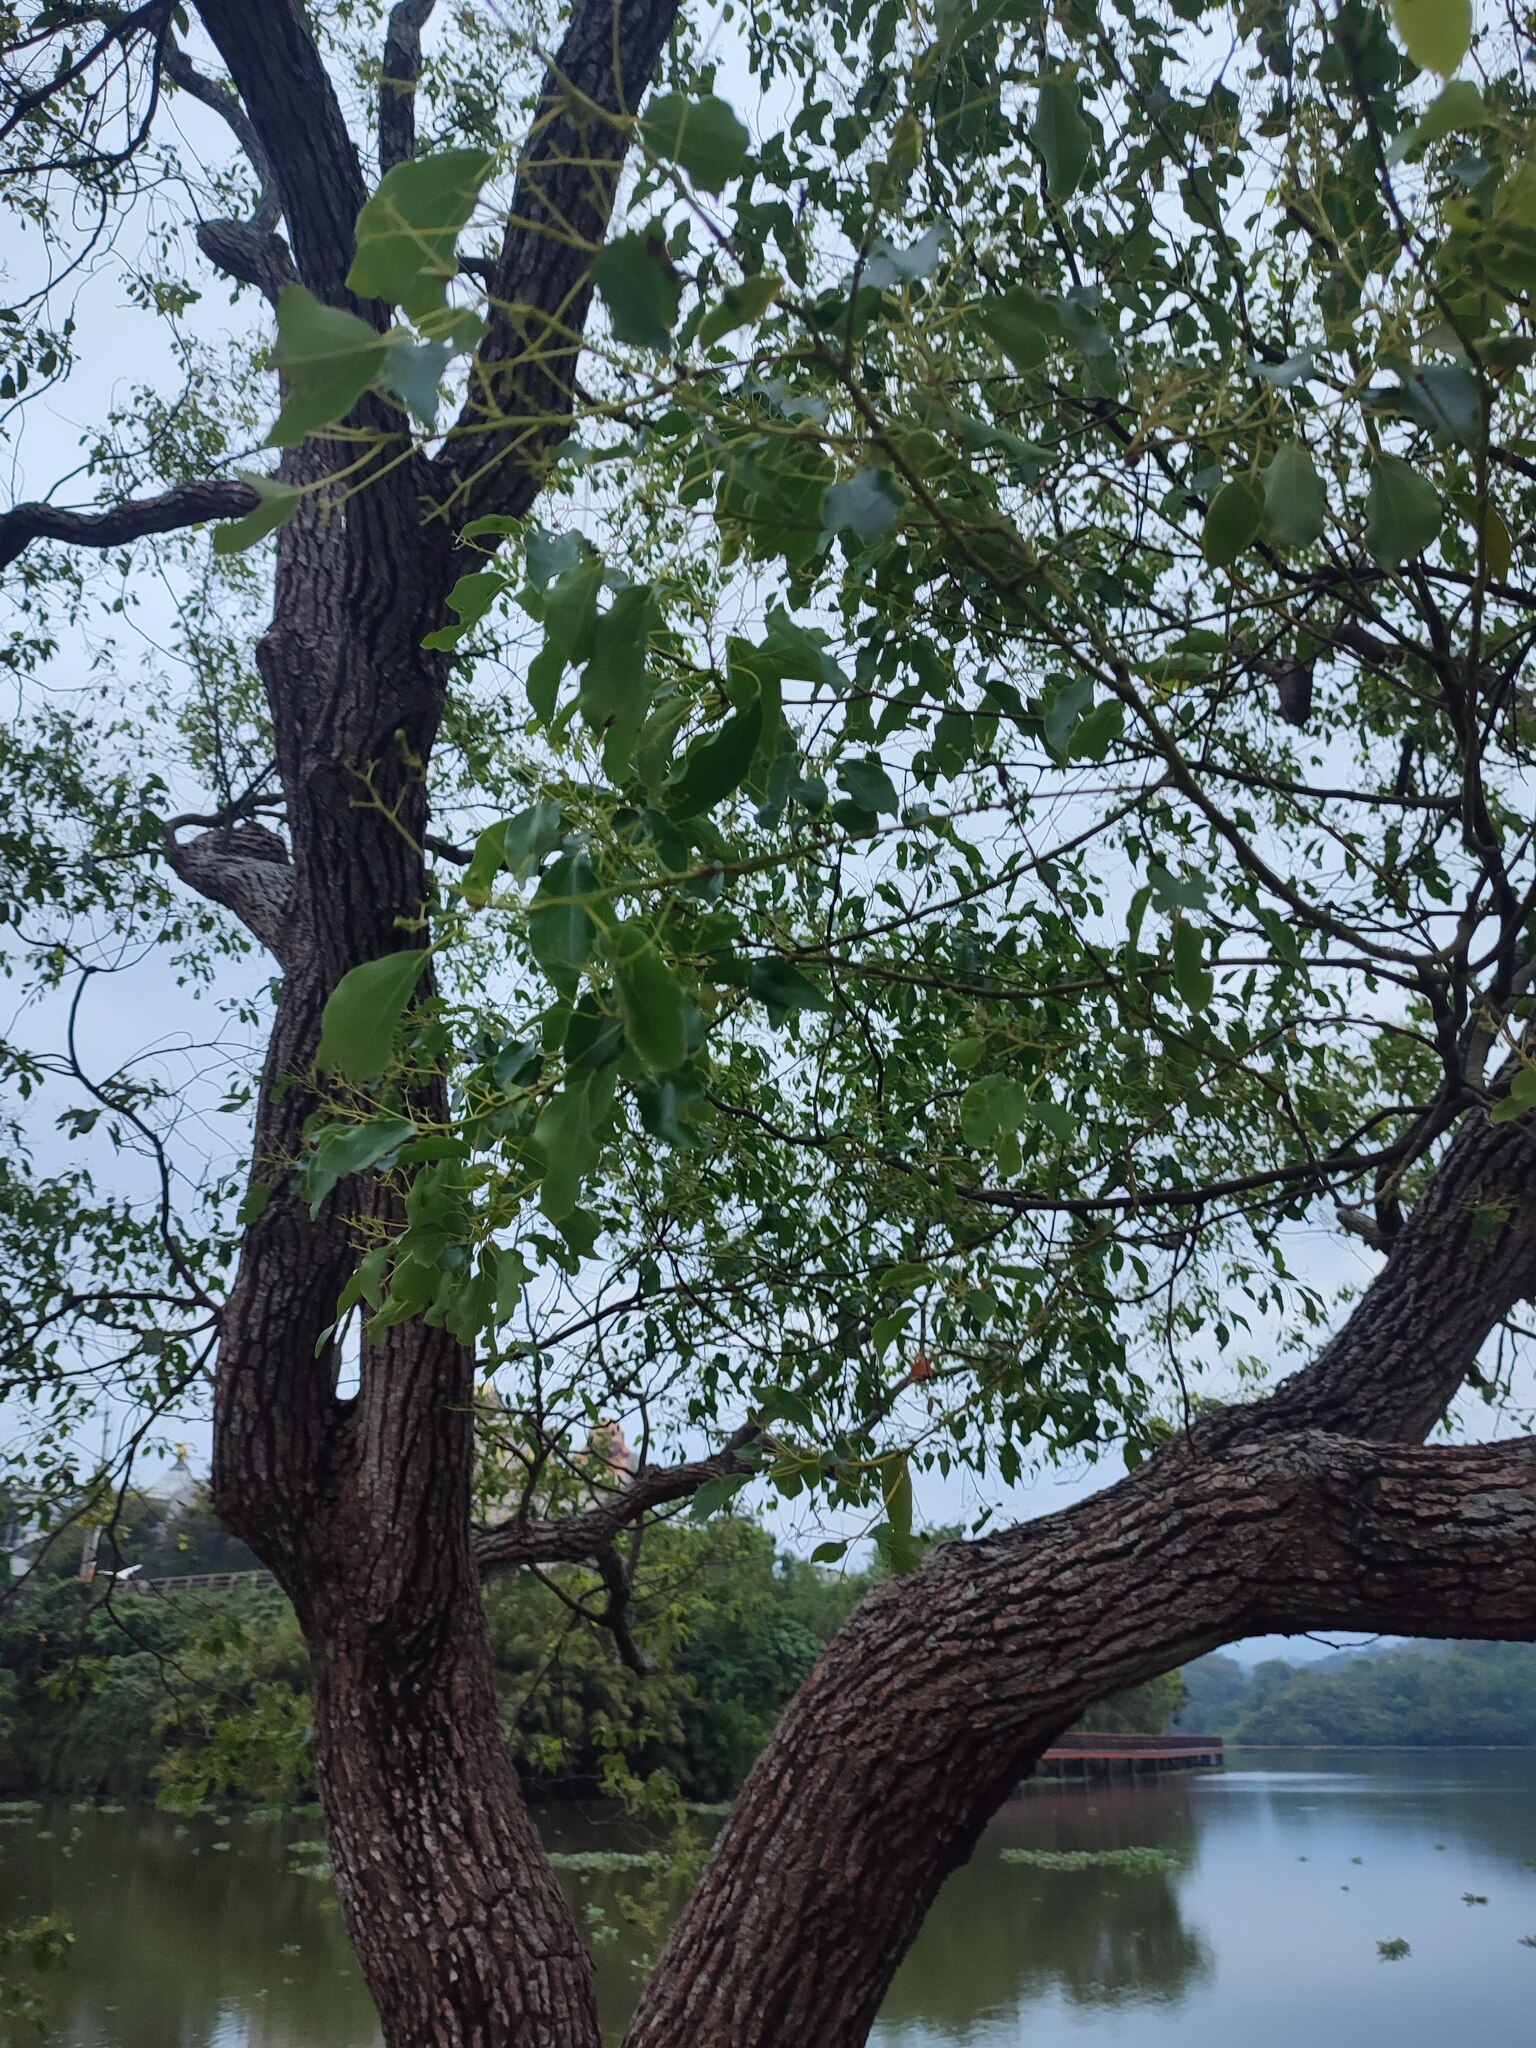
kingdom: Plantae
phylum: Tracheophyta
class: Magnoliopsida
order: Laurales
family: Lauraceae
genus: Cinnamomum
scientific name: Cinnamomum camphora
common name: Camphortree
